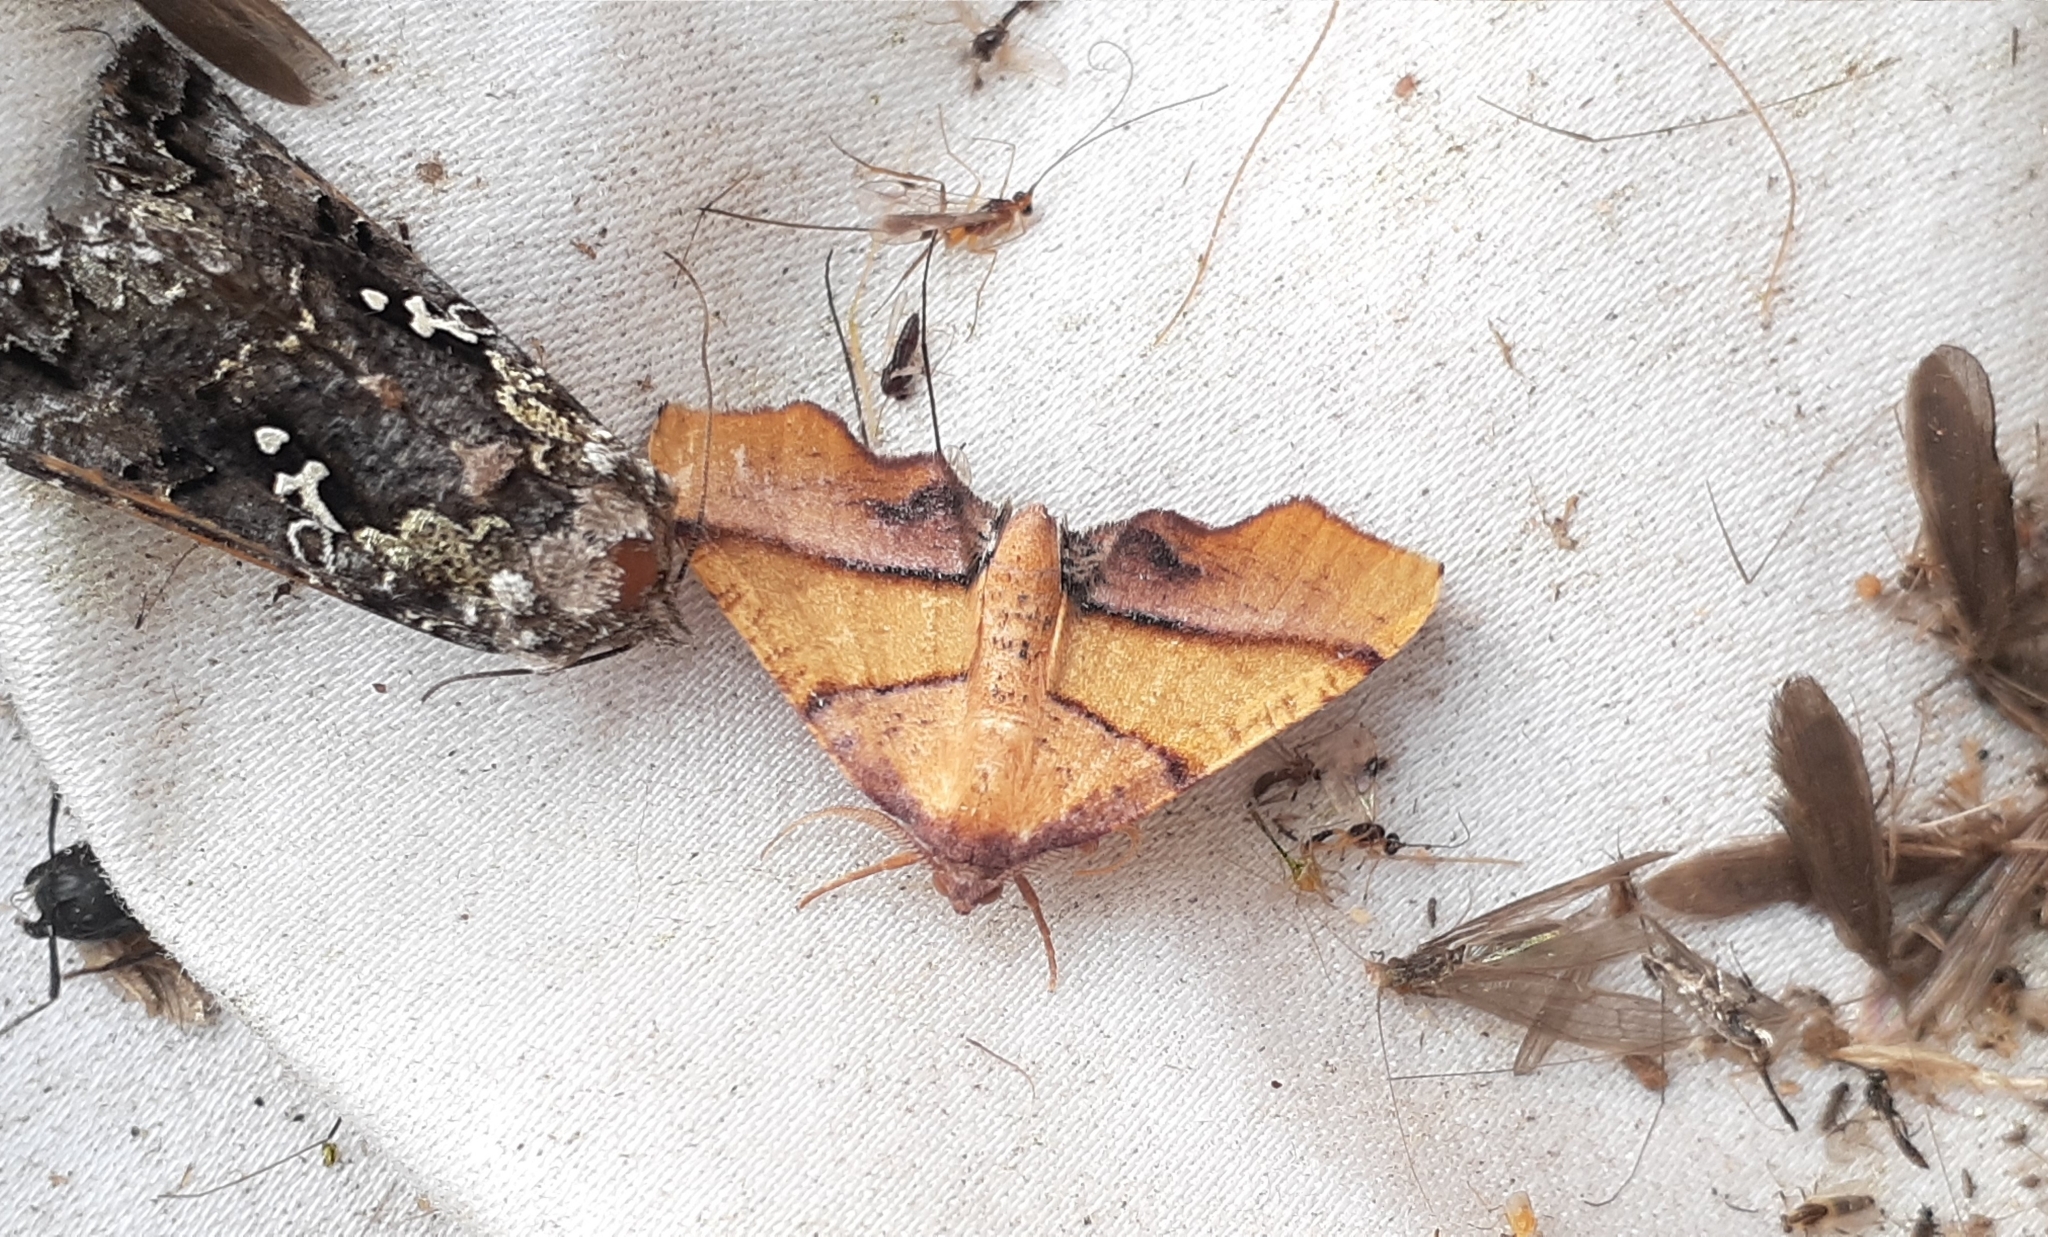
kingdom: Animalia
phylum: Arthropoda
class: Insecta
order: Lepidoptera
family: Geometridae
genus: Plagodis
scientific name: Plagodis phlogosaria
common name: Straight-lined plagodis
